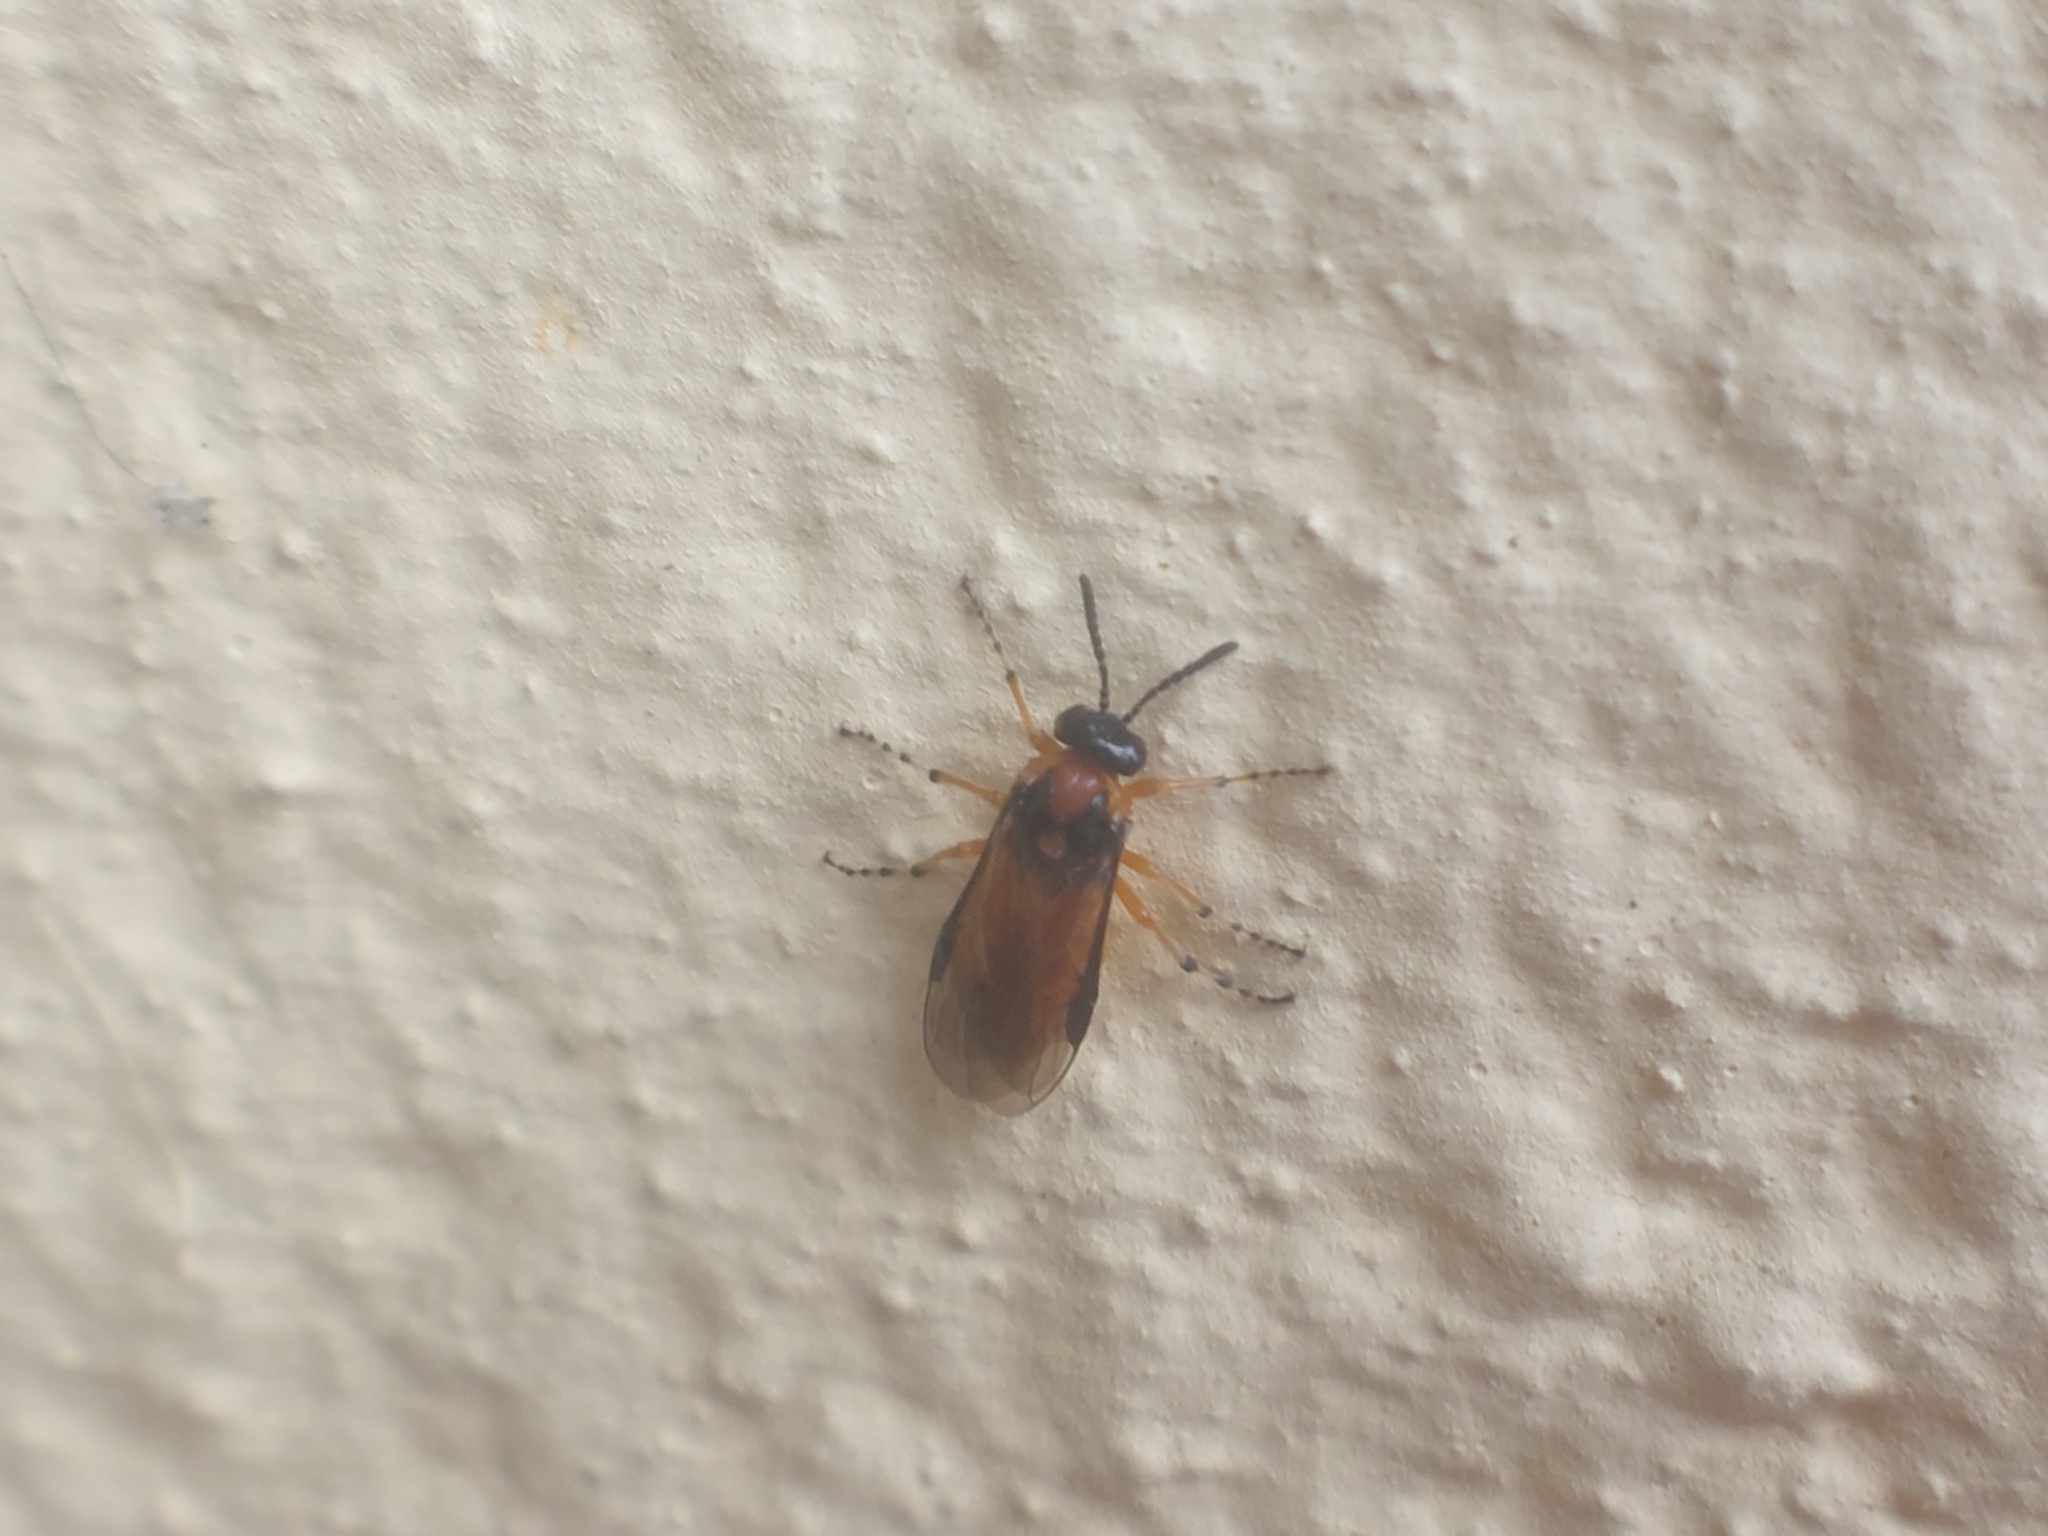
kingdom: Animalia
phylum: Arthropoda
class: Insecta
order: Hymenoptera
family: Tenthredinidae
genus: Athalia
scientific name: Athalia rosae
